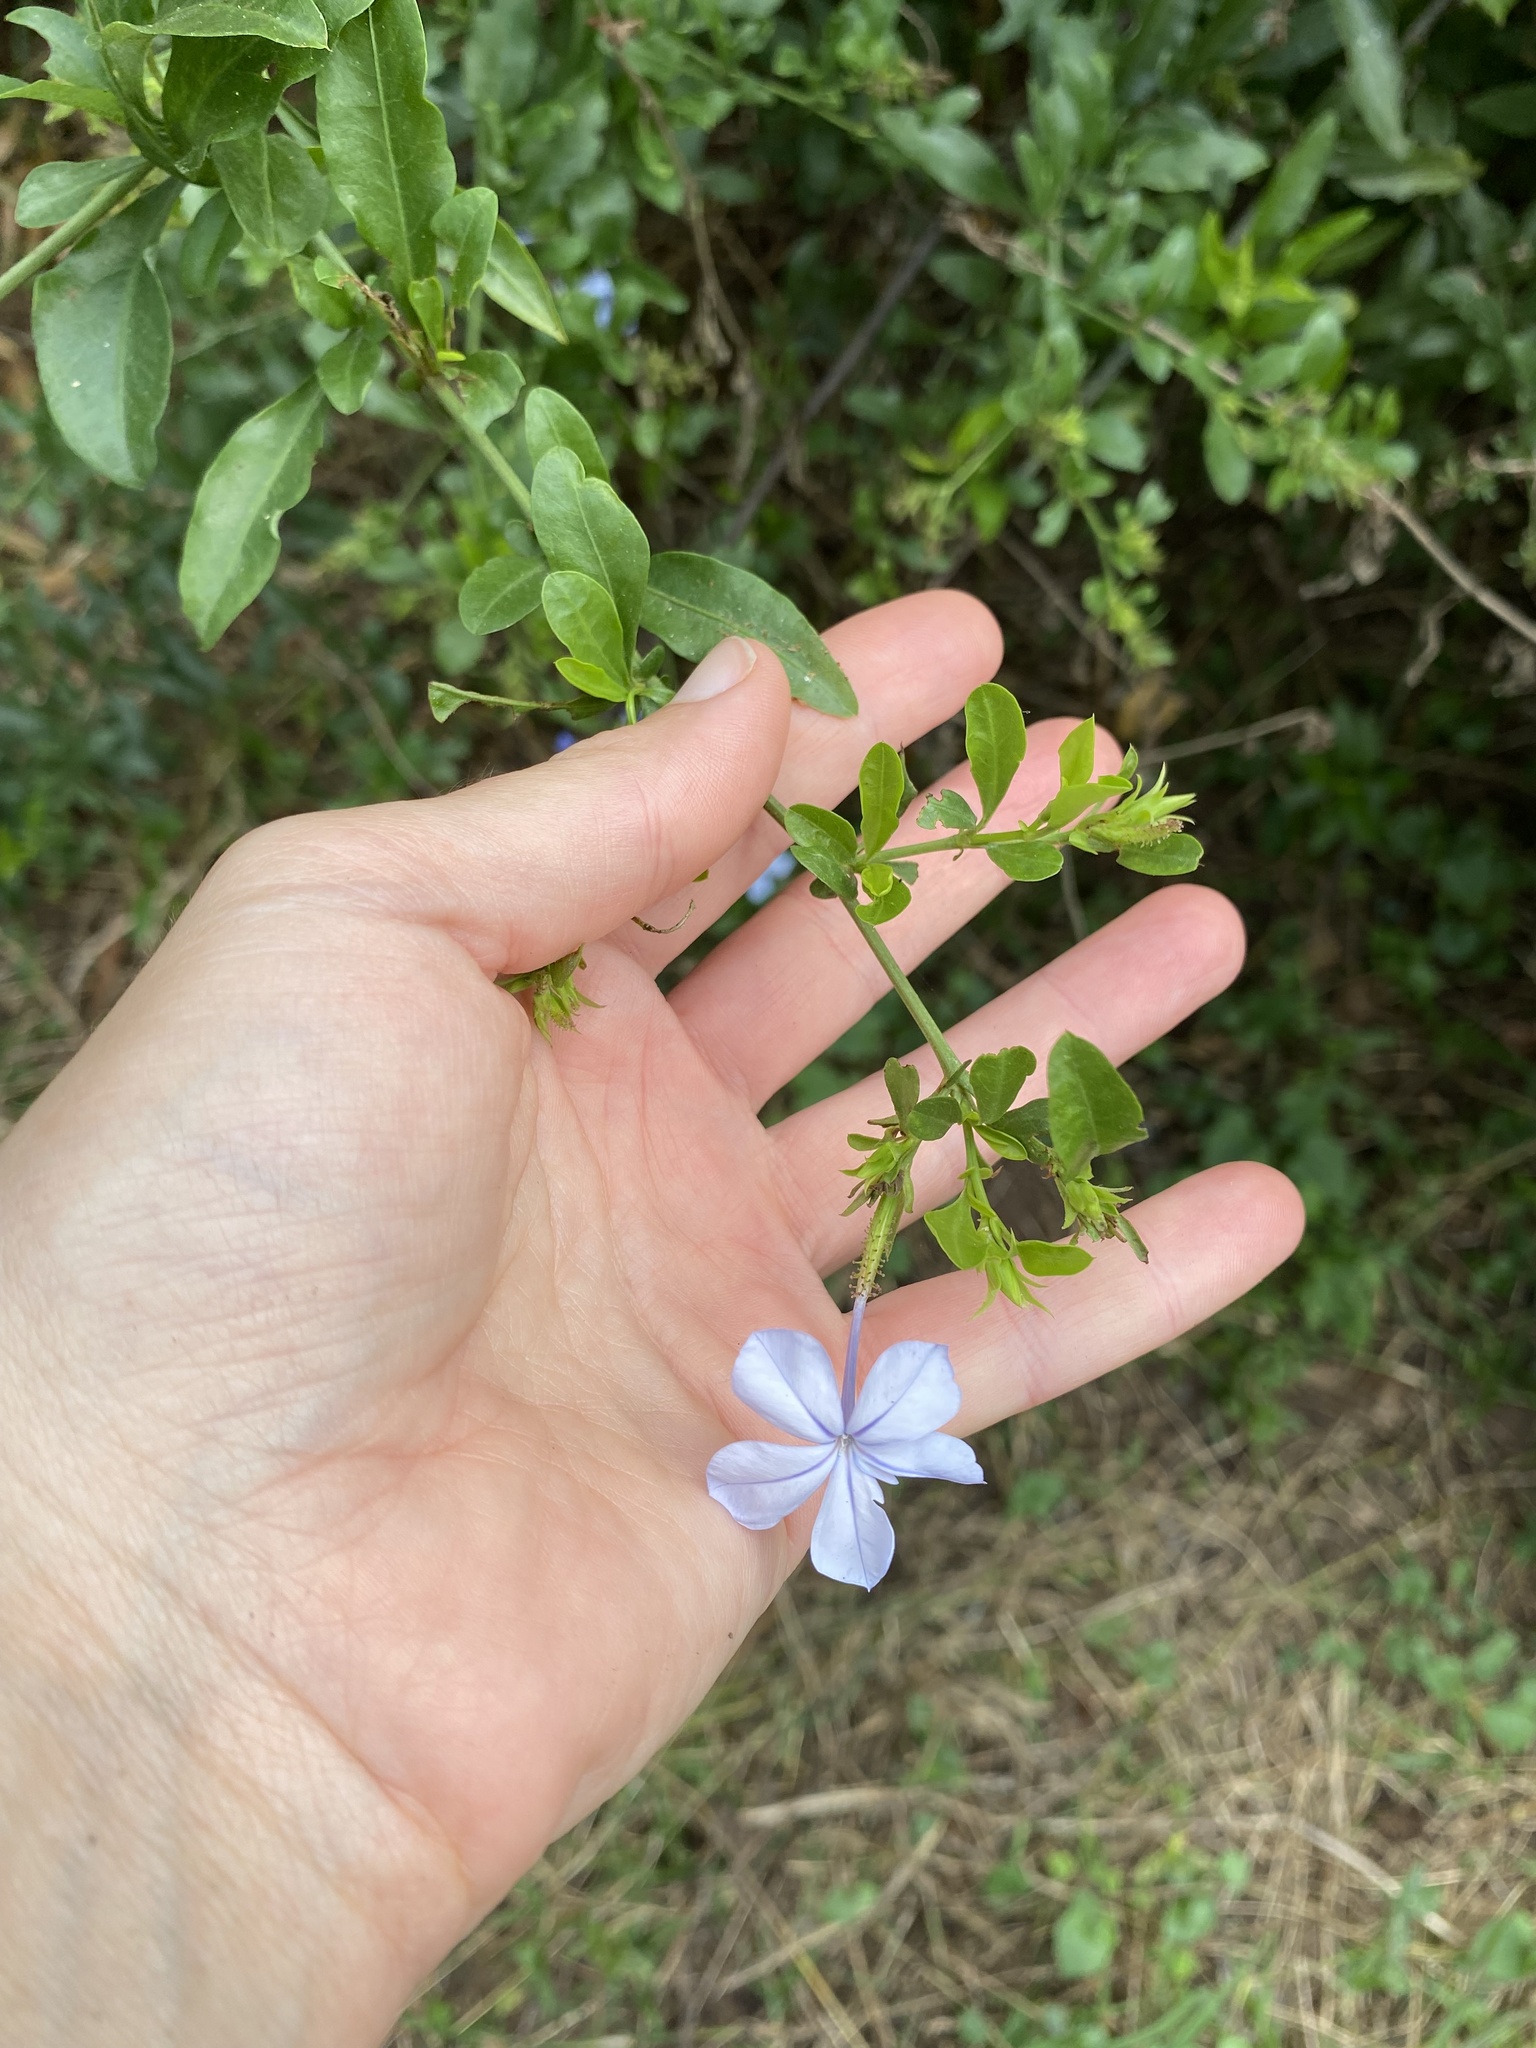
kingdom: Plantae
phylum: Tracheophyta
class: Magnoliopsida
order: Caryophyllales
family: Plumbaginaceae
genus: Plumbago
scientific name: Plumbago auriculata
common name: Cape leadwort
